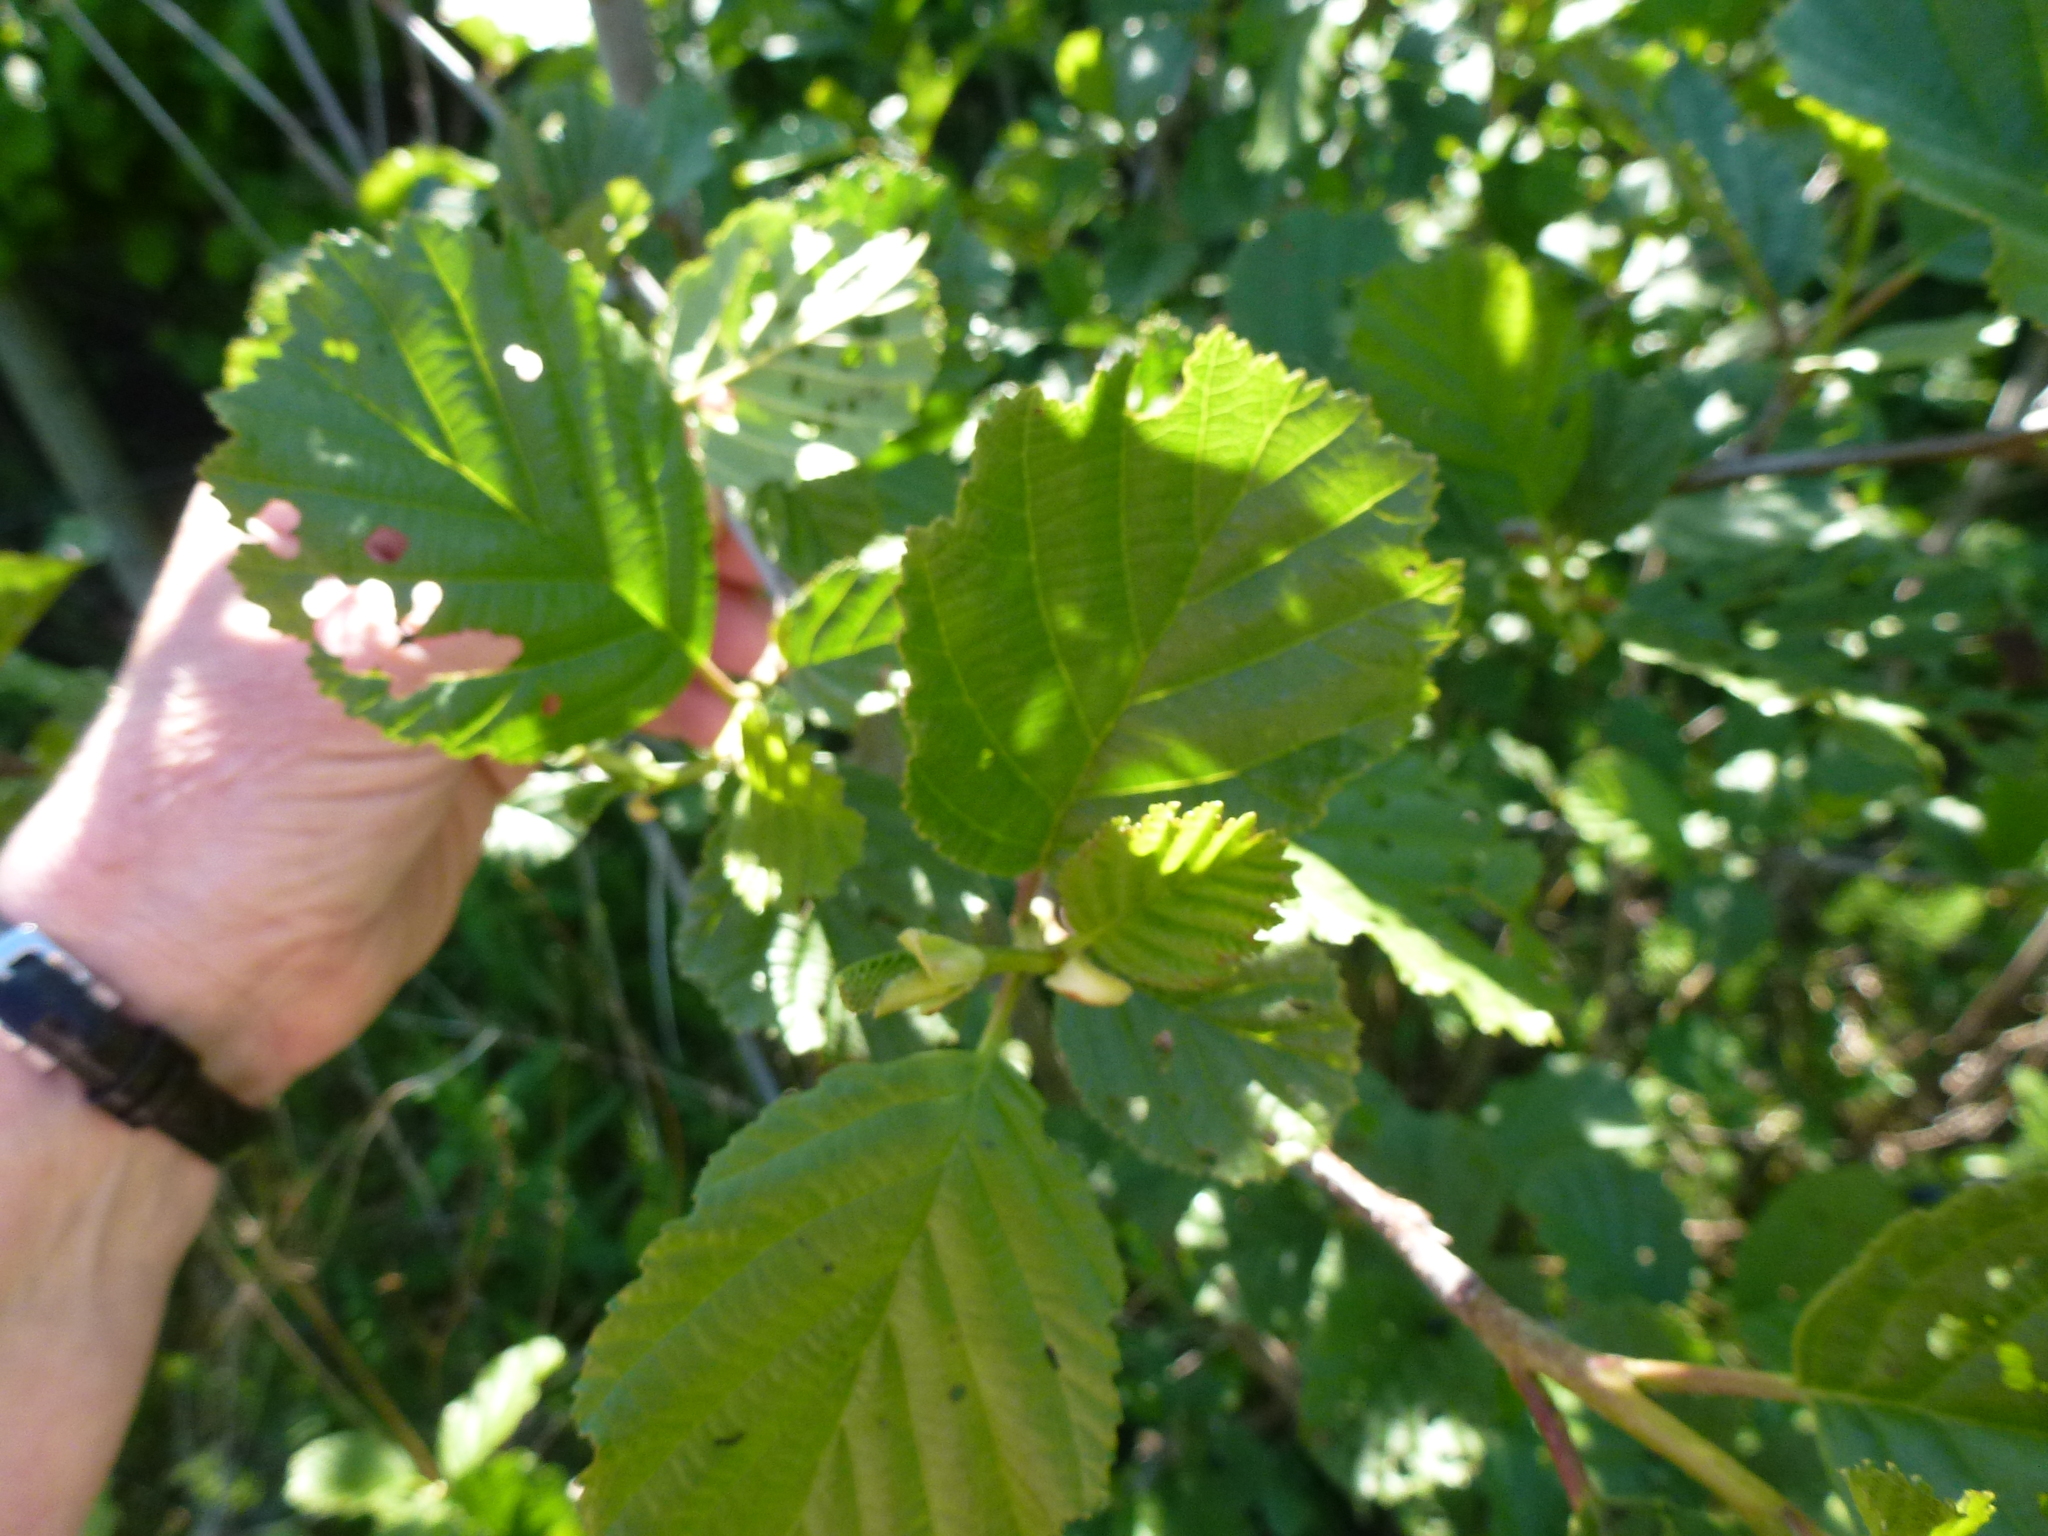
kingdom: Plantae
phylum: Tracheophyta
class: Magnoliopsida
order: Fagales
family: Betulaceae
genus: Alnus
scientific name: Alnus glutinosa
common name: Black alder
